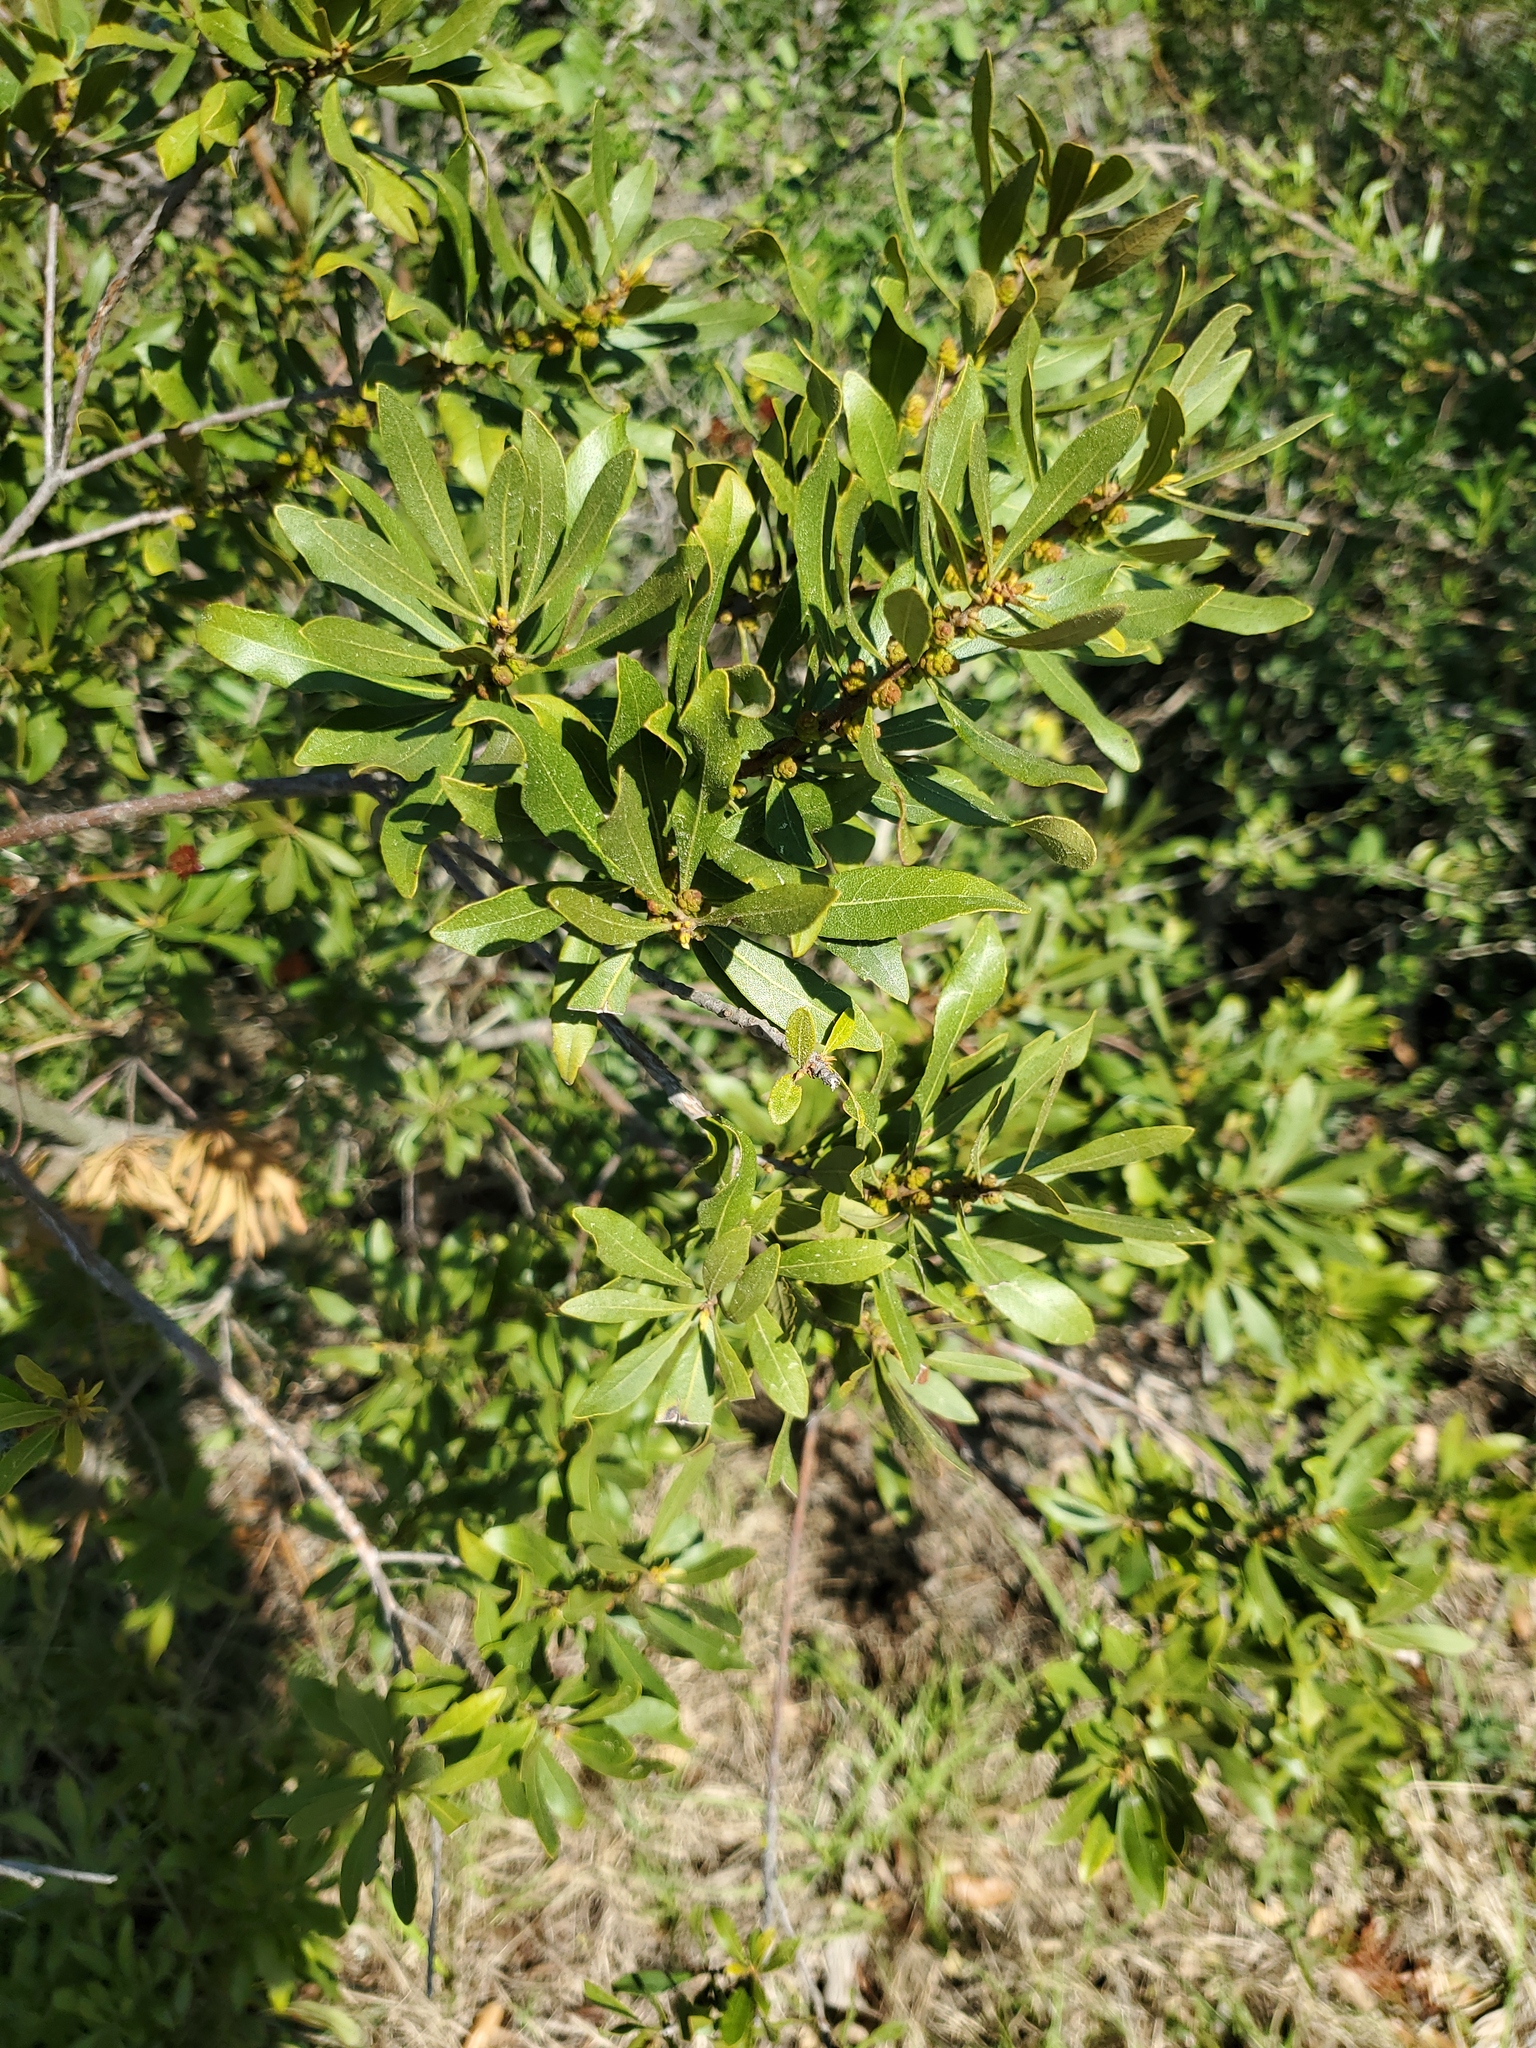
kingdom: Plantae
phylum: Tracheophyta
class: Magnoliopsida
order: Fagales
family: Myricaceae
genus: Morella
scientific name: Morella cerifera
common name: Wax myrtle
